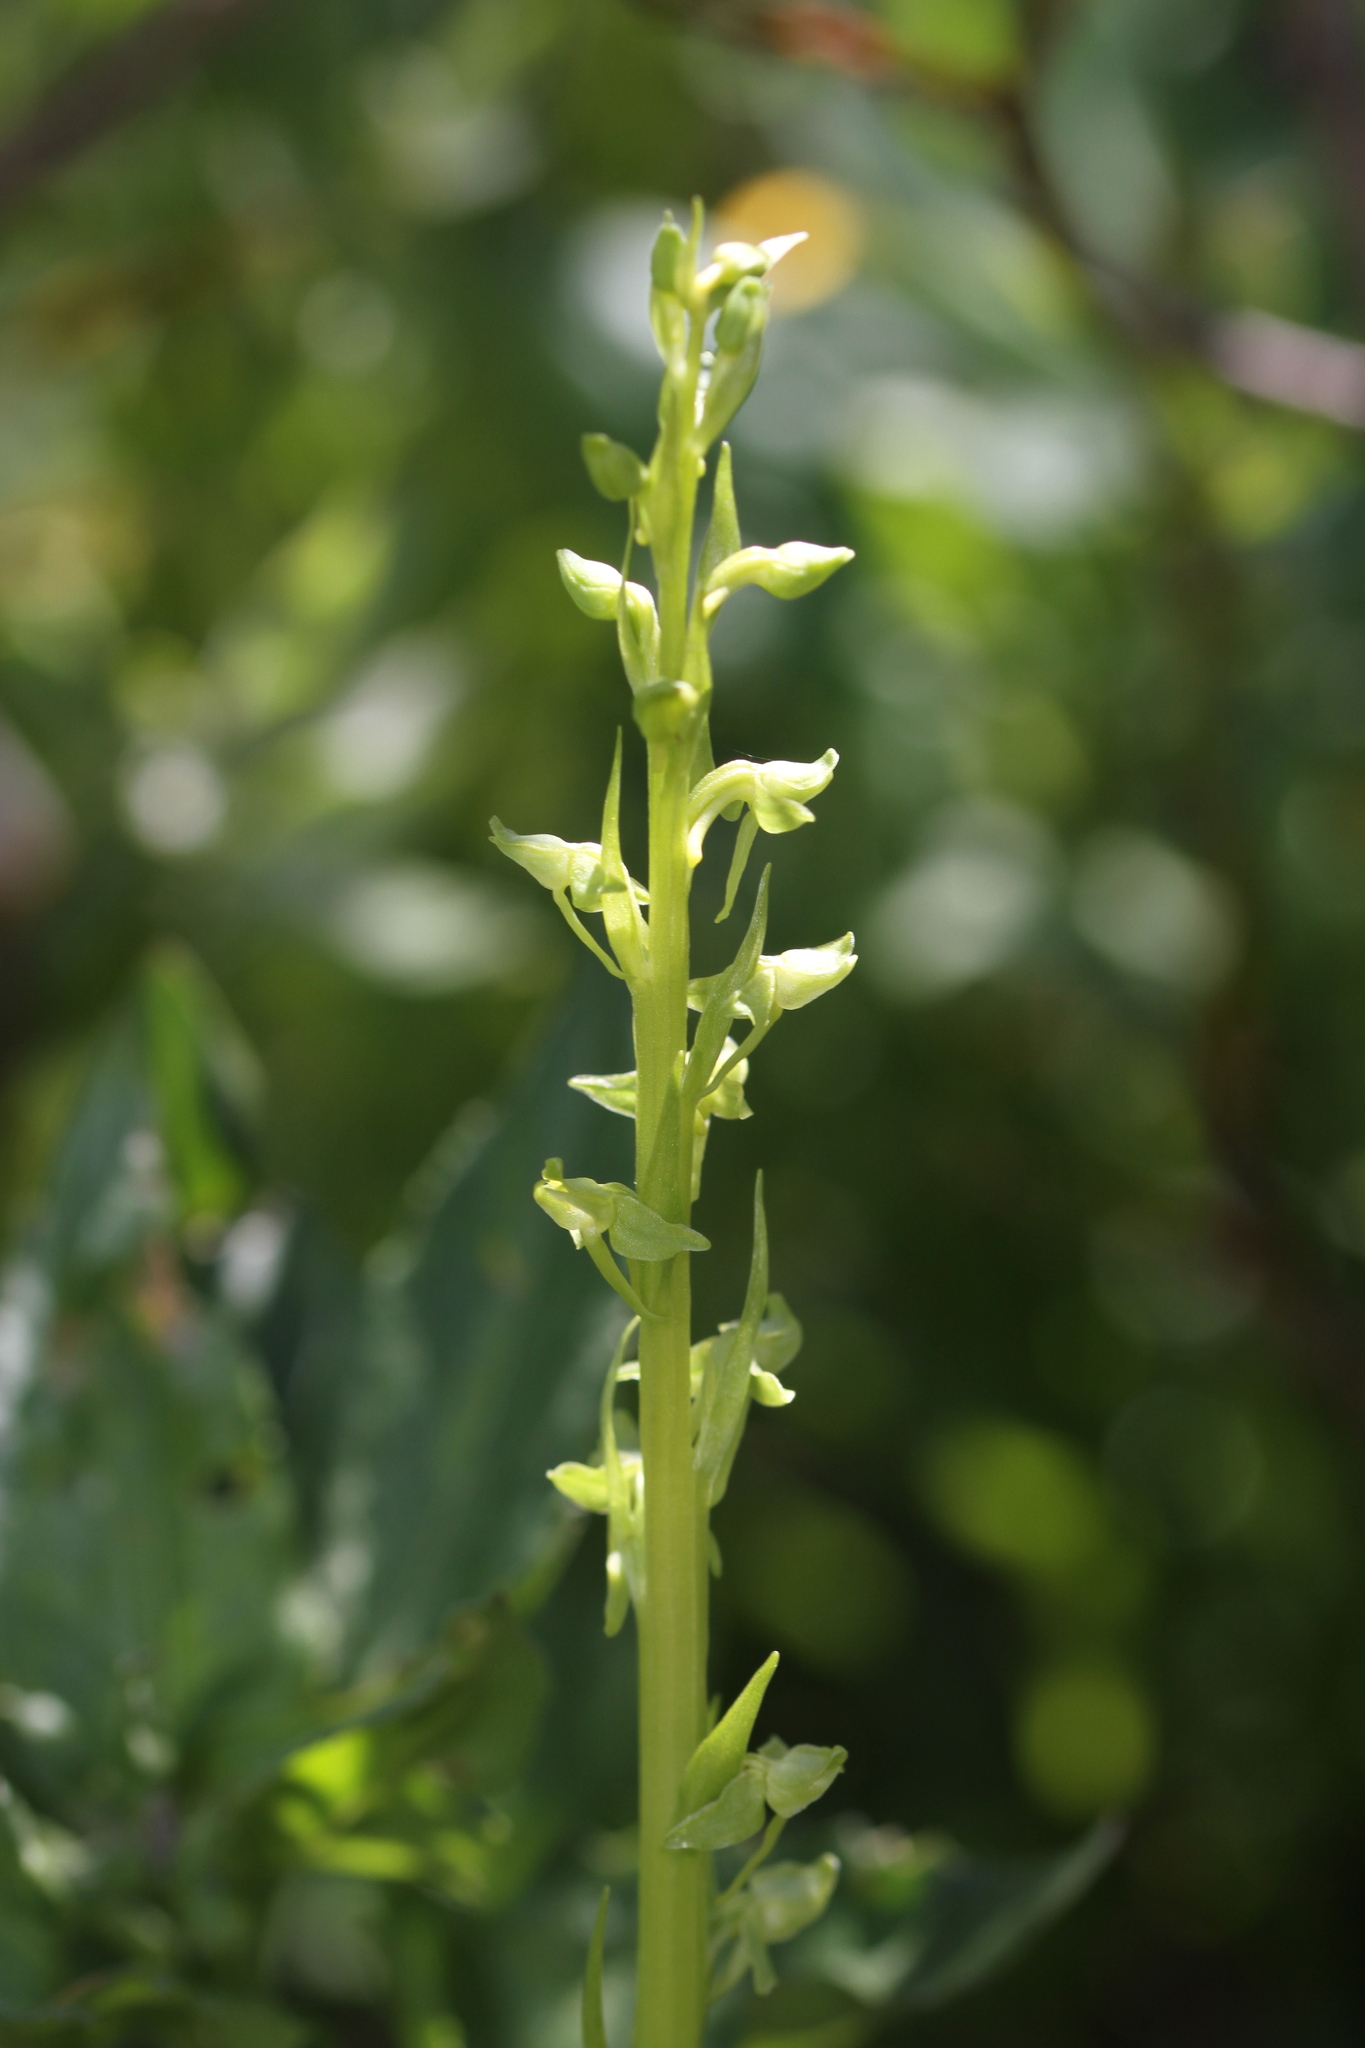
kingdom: Plantae
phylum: Tracheophyta
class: Liliopsida
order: Asparagales
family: Orchidaceae
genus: Platanthera
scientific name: Platanthera sparsiflora
